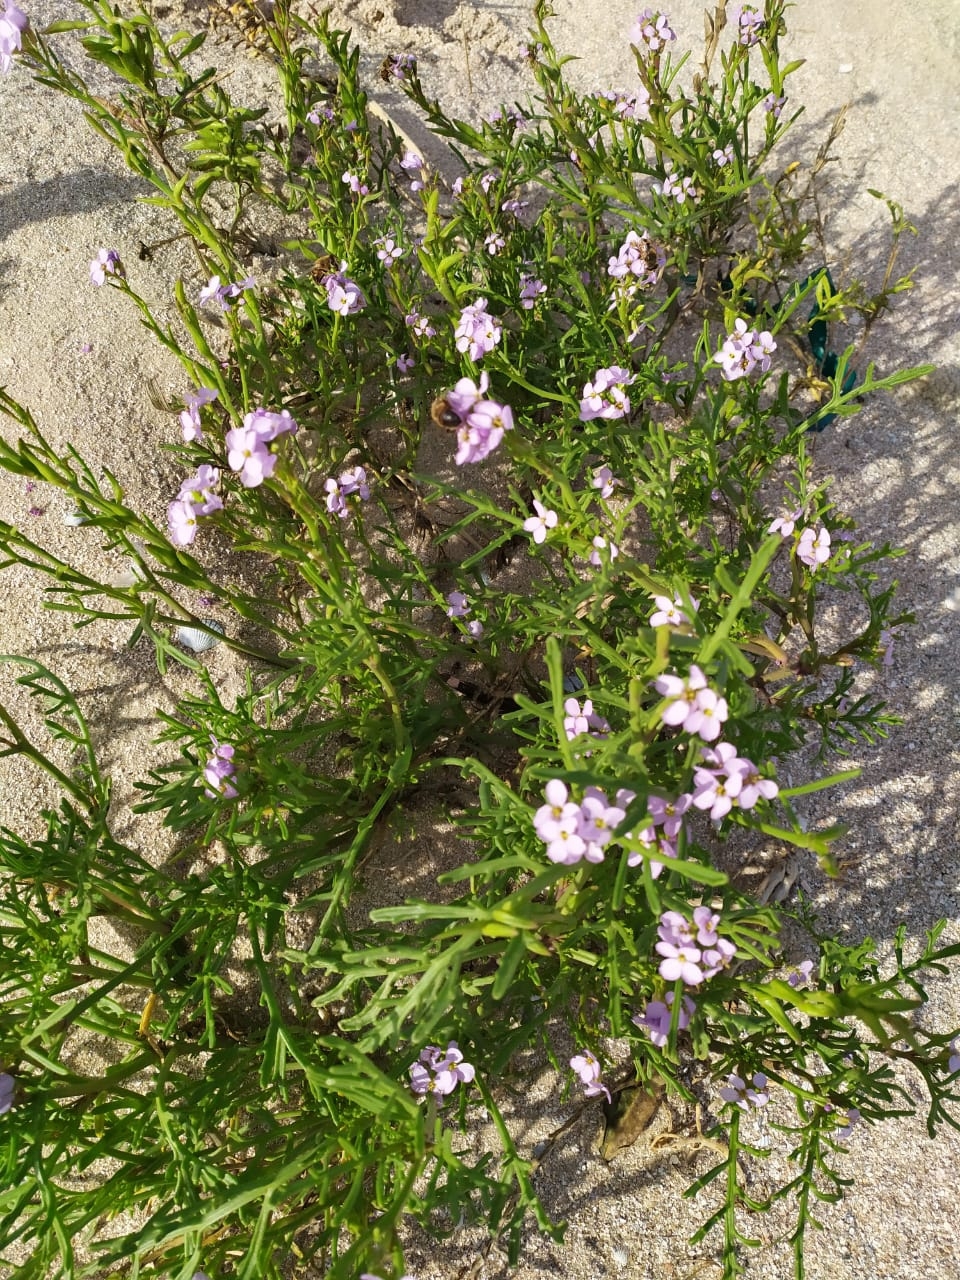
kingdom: Plantae
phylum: Tracheophyta
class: Magnoliopsida
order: Brassicales
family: Brassicaceae
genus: Cakile
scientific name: Cakile maritima
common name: Sea rocket
